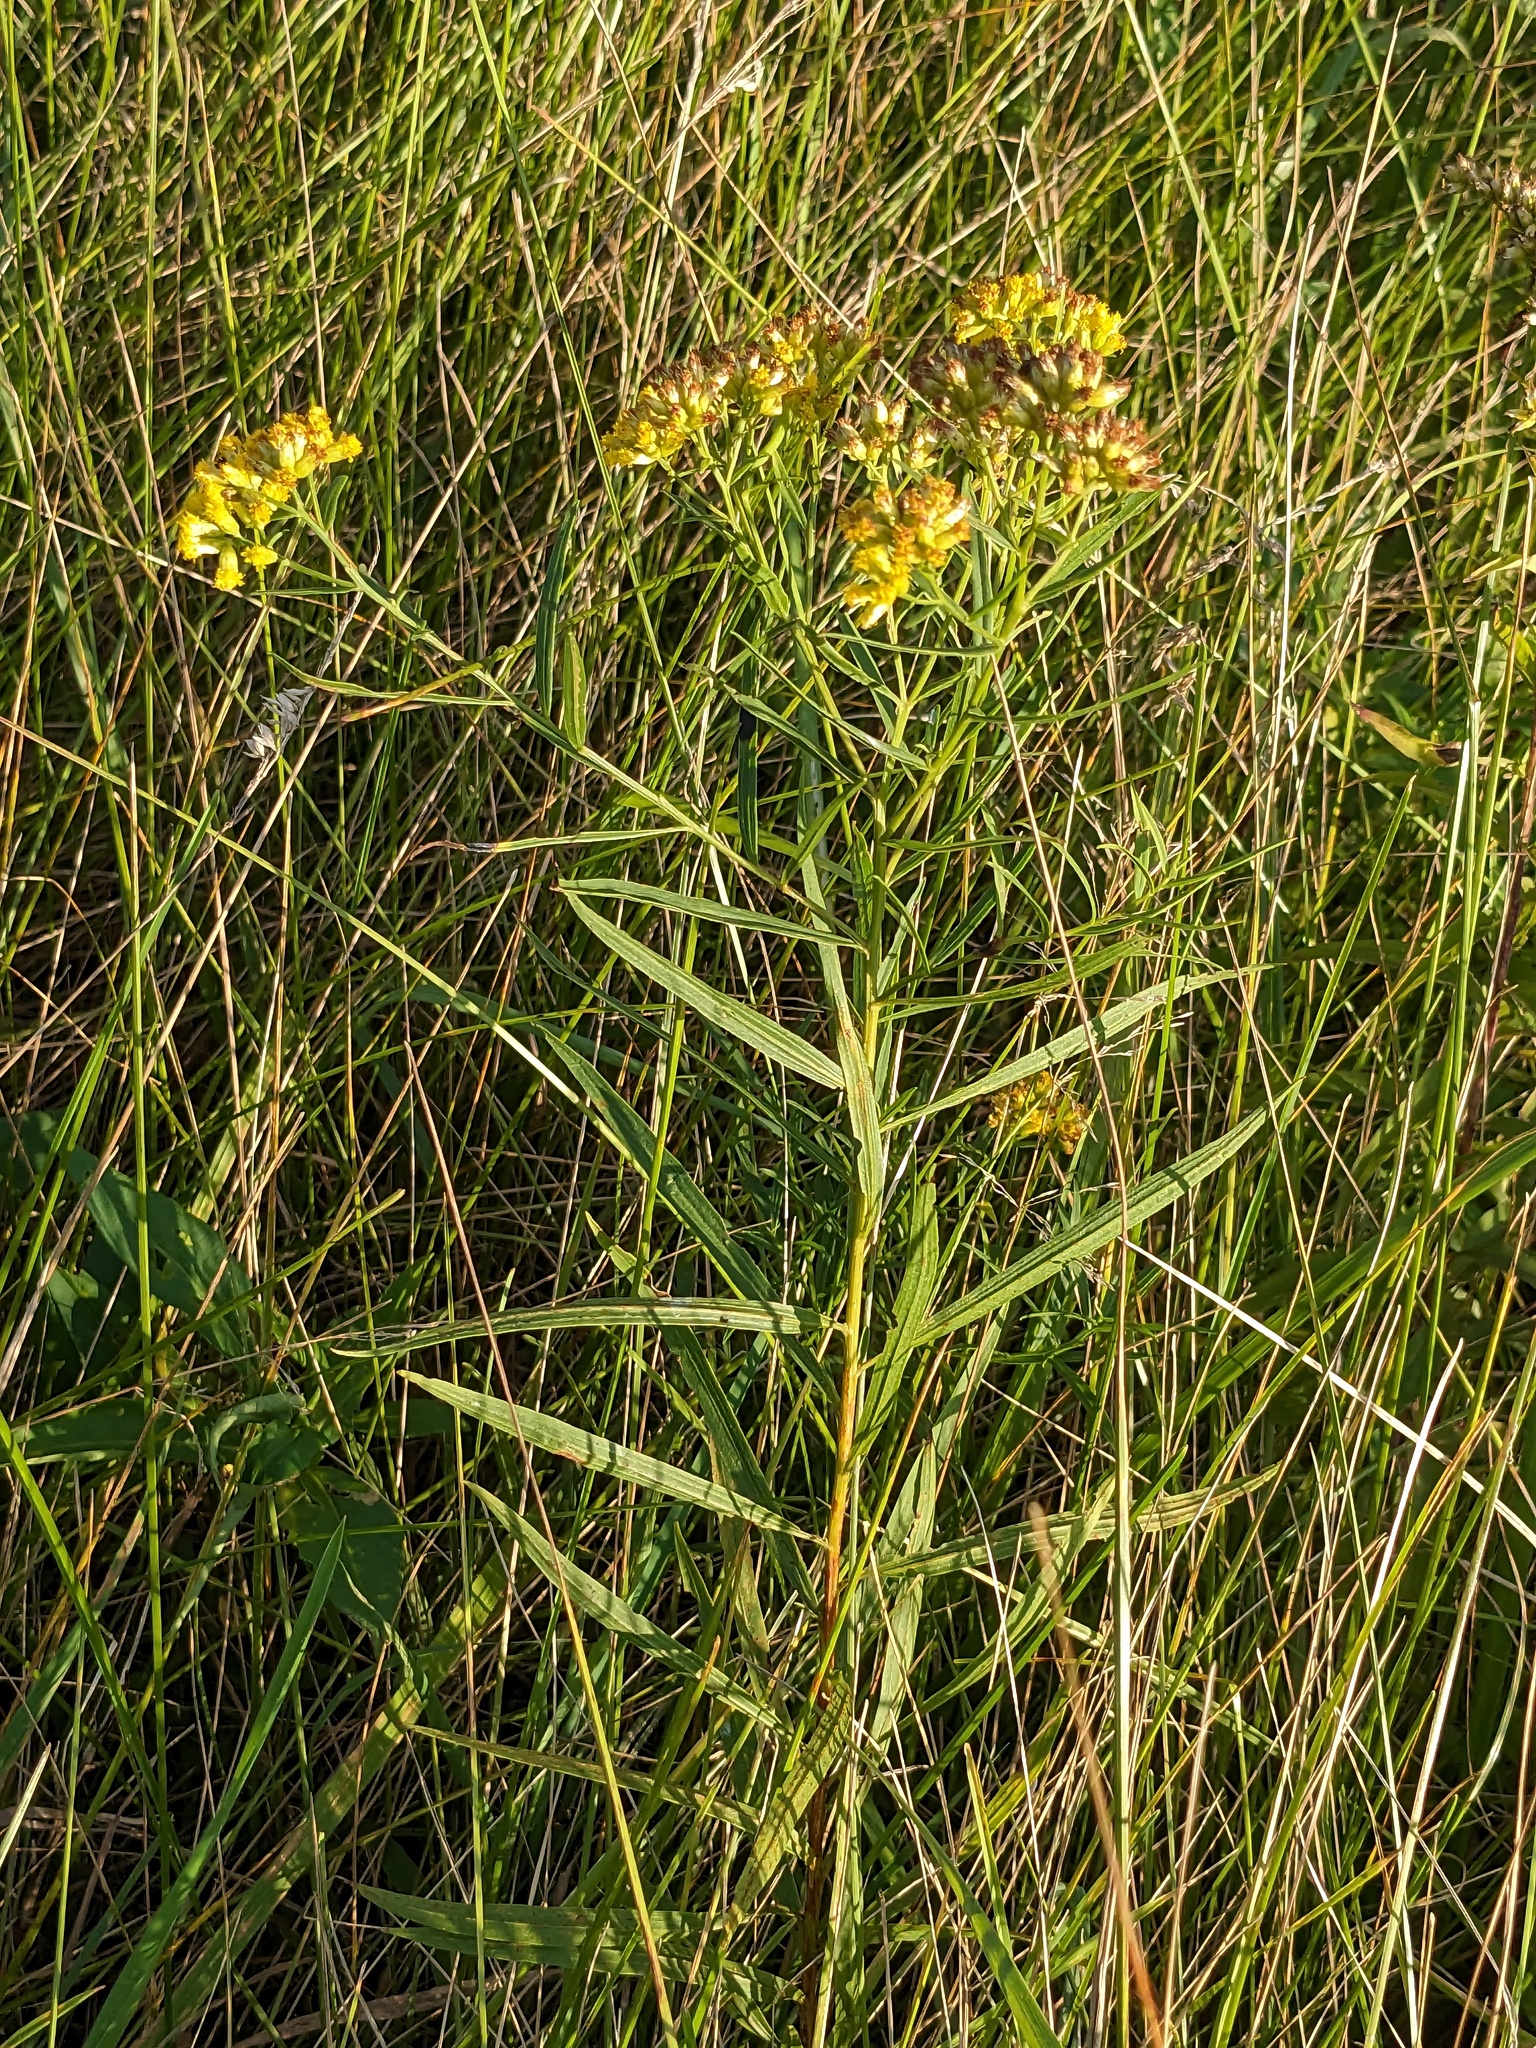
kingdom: Plantae
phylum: Tracheophyta
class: Magnoliopsida
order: Asterales
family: Asteraceae
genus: Euthamia
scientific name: Euthamia graminifolia
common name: Common goldentop
